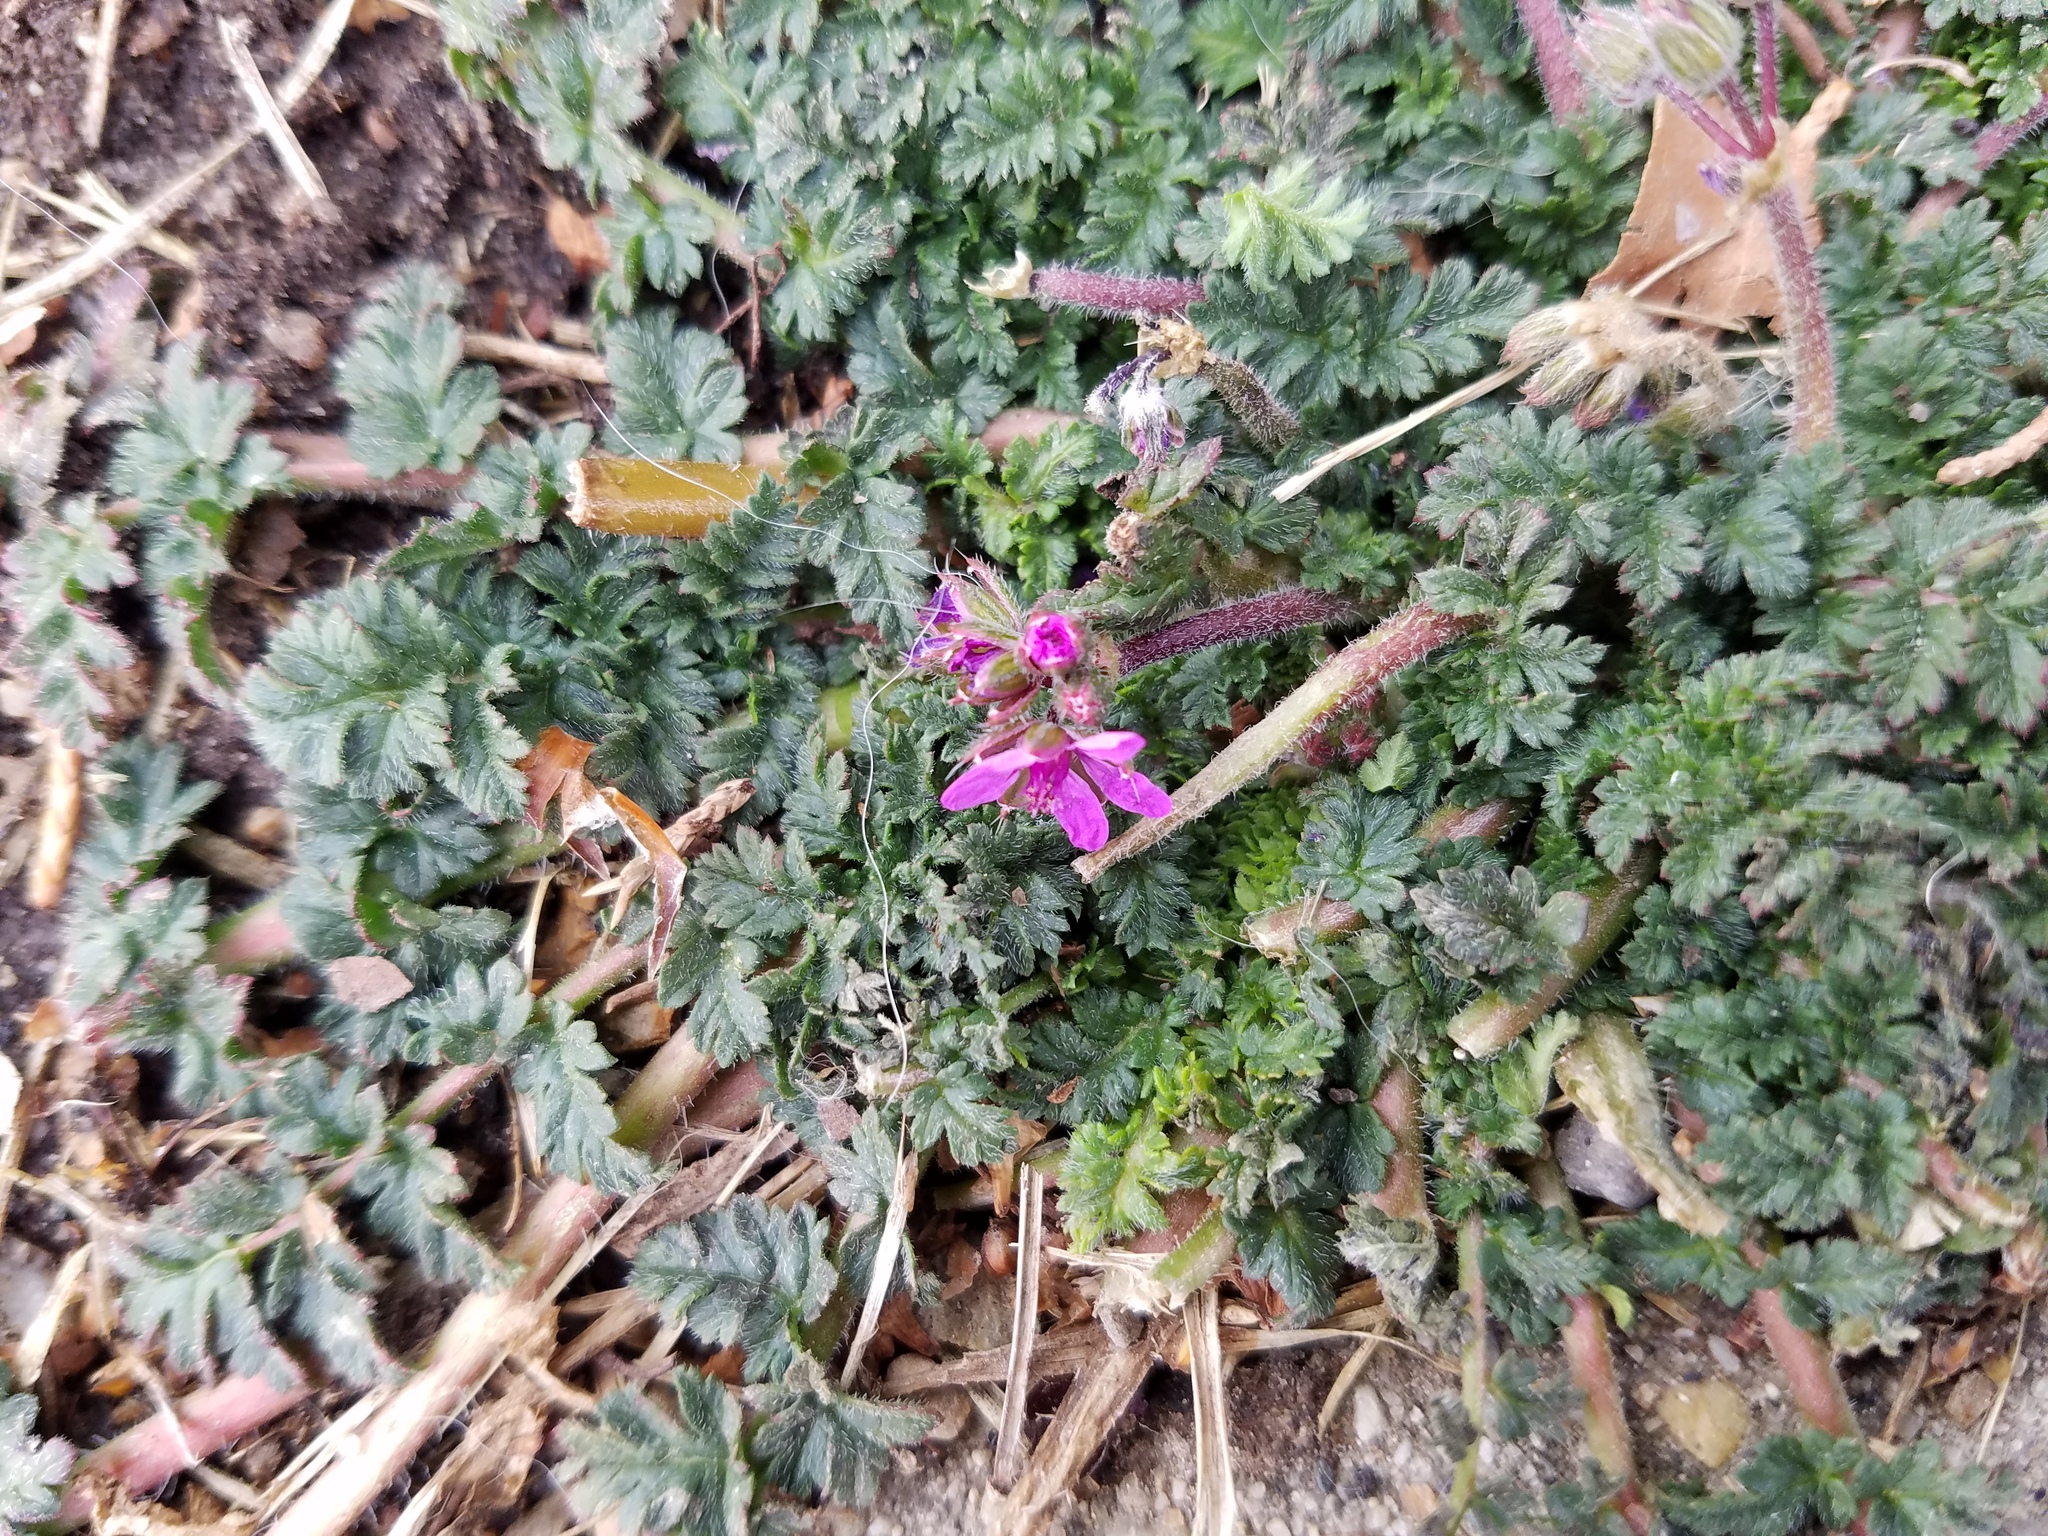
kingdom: Plantae
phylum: Tracheophyta
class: Magnoliopsida
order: Geraniales
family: Geraniaceae
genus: Erodium
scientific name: Erodium cicutarium
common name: Common stork's-bill
